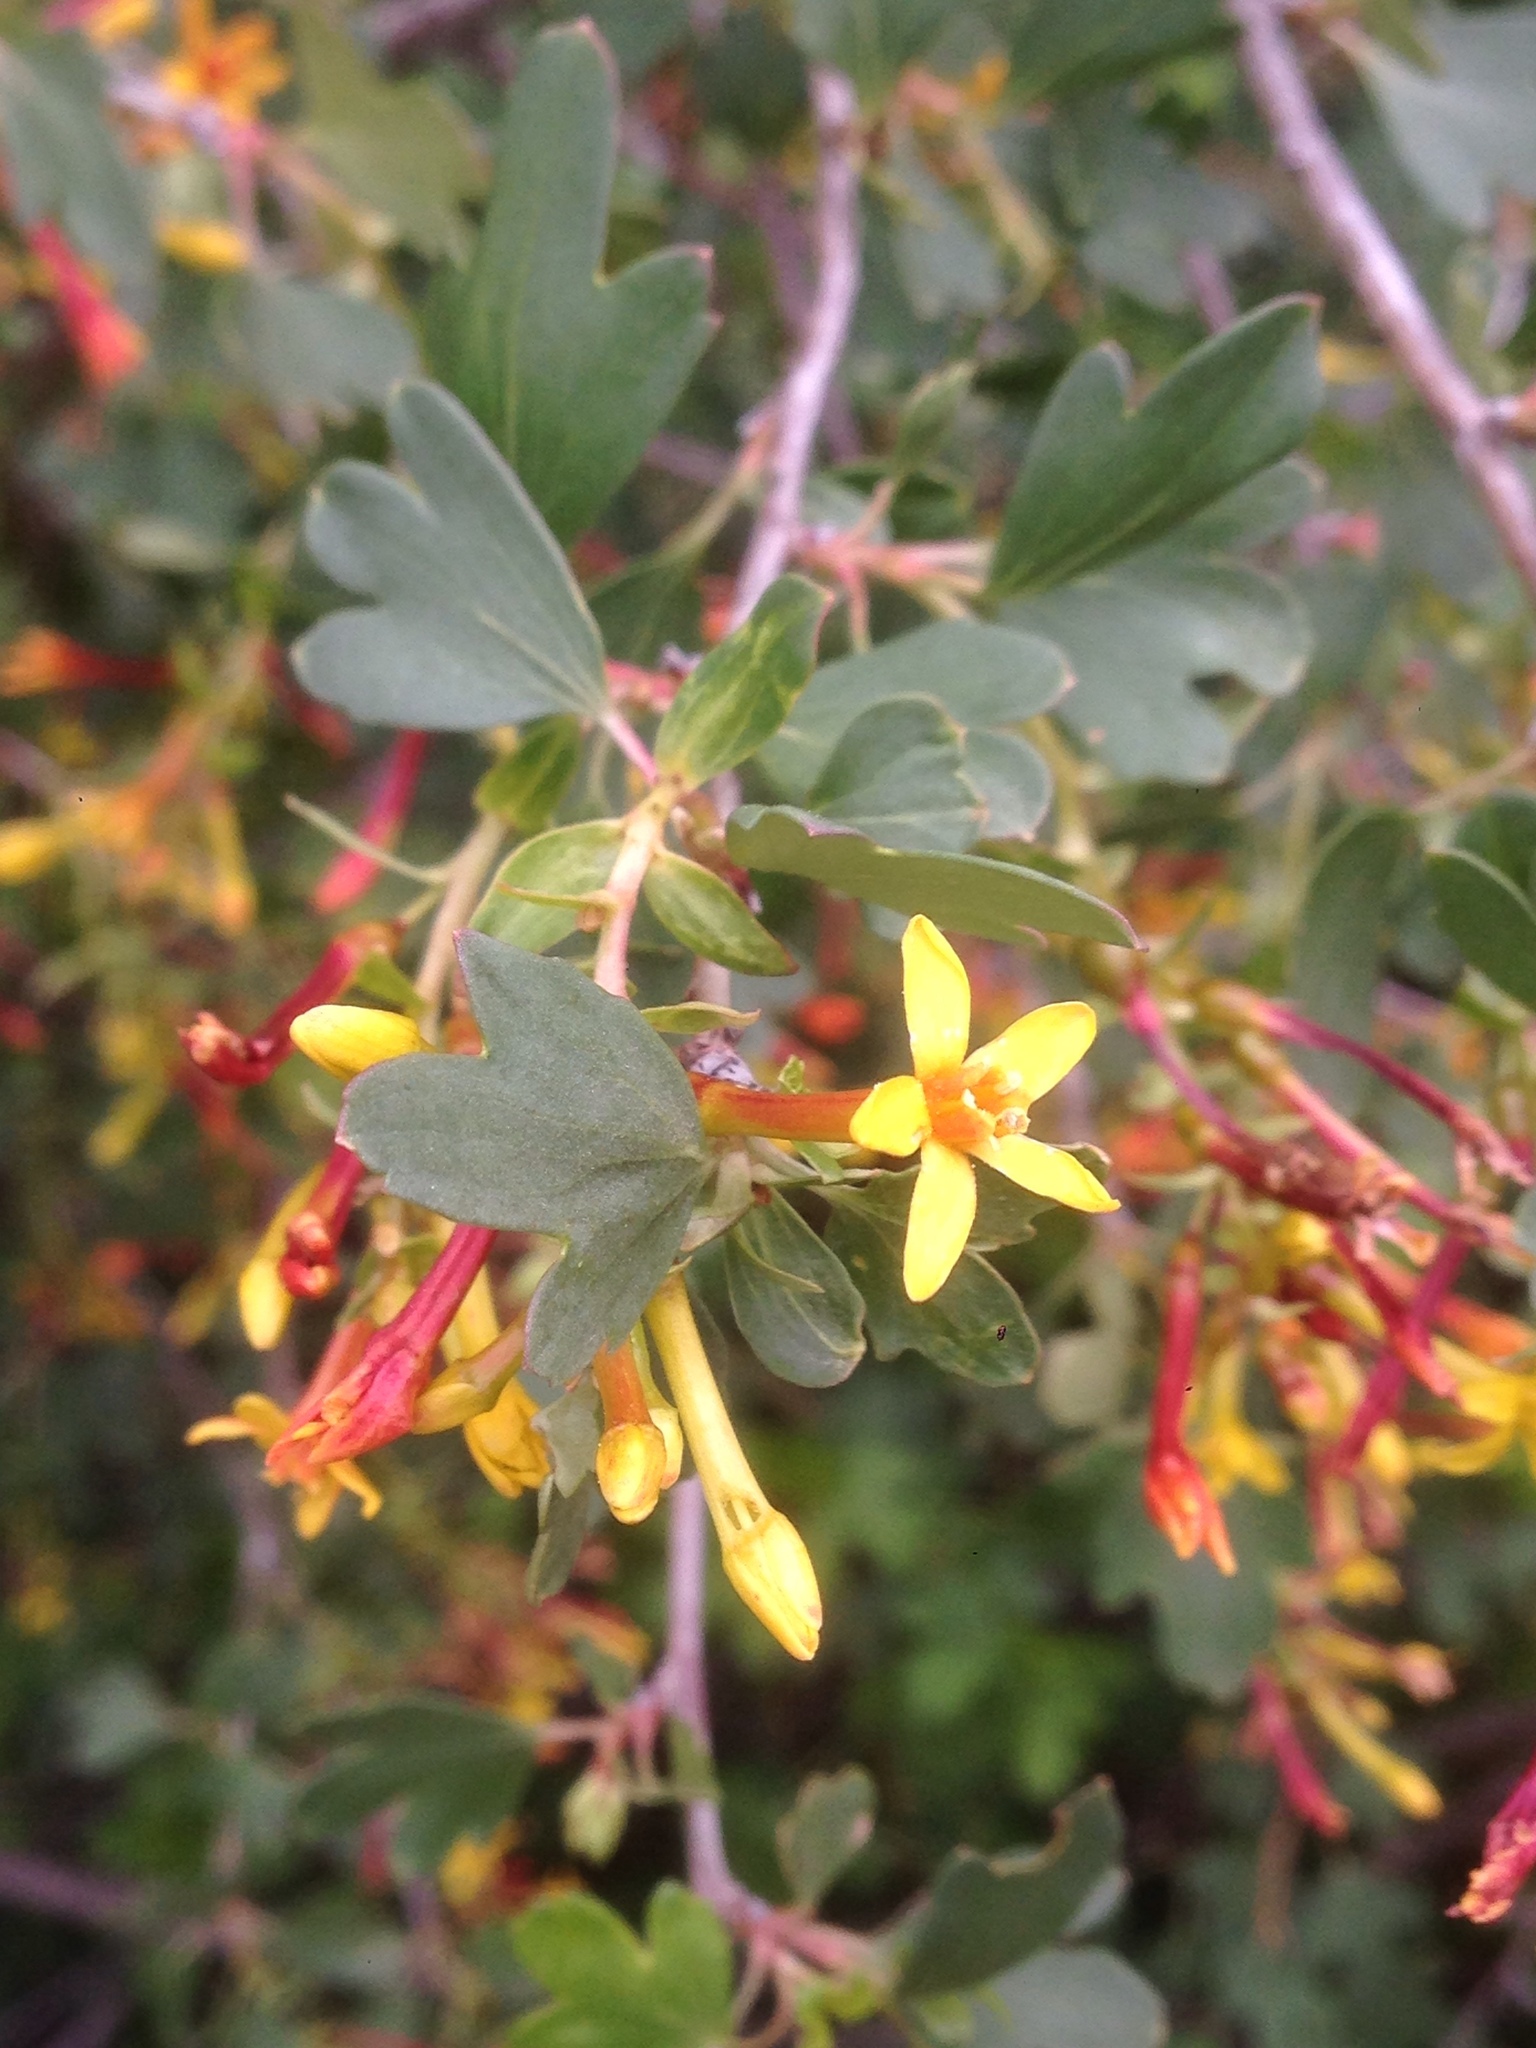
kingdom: Plantae
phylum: Tracheophyta
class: Magnoliopsida
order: Saxifragales
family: Grossulariaceae
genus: Ribes
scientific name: Ribes aureum
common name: Golden currant
